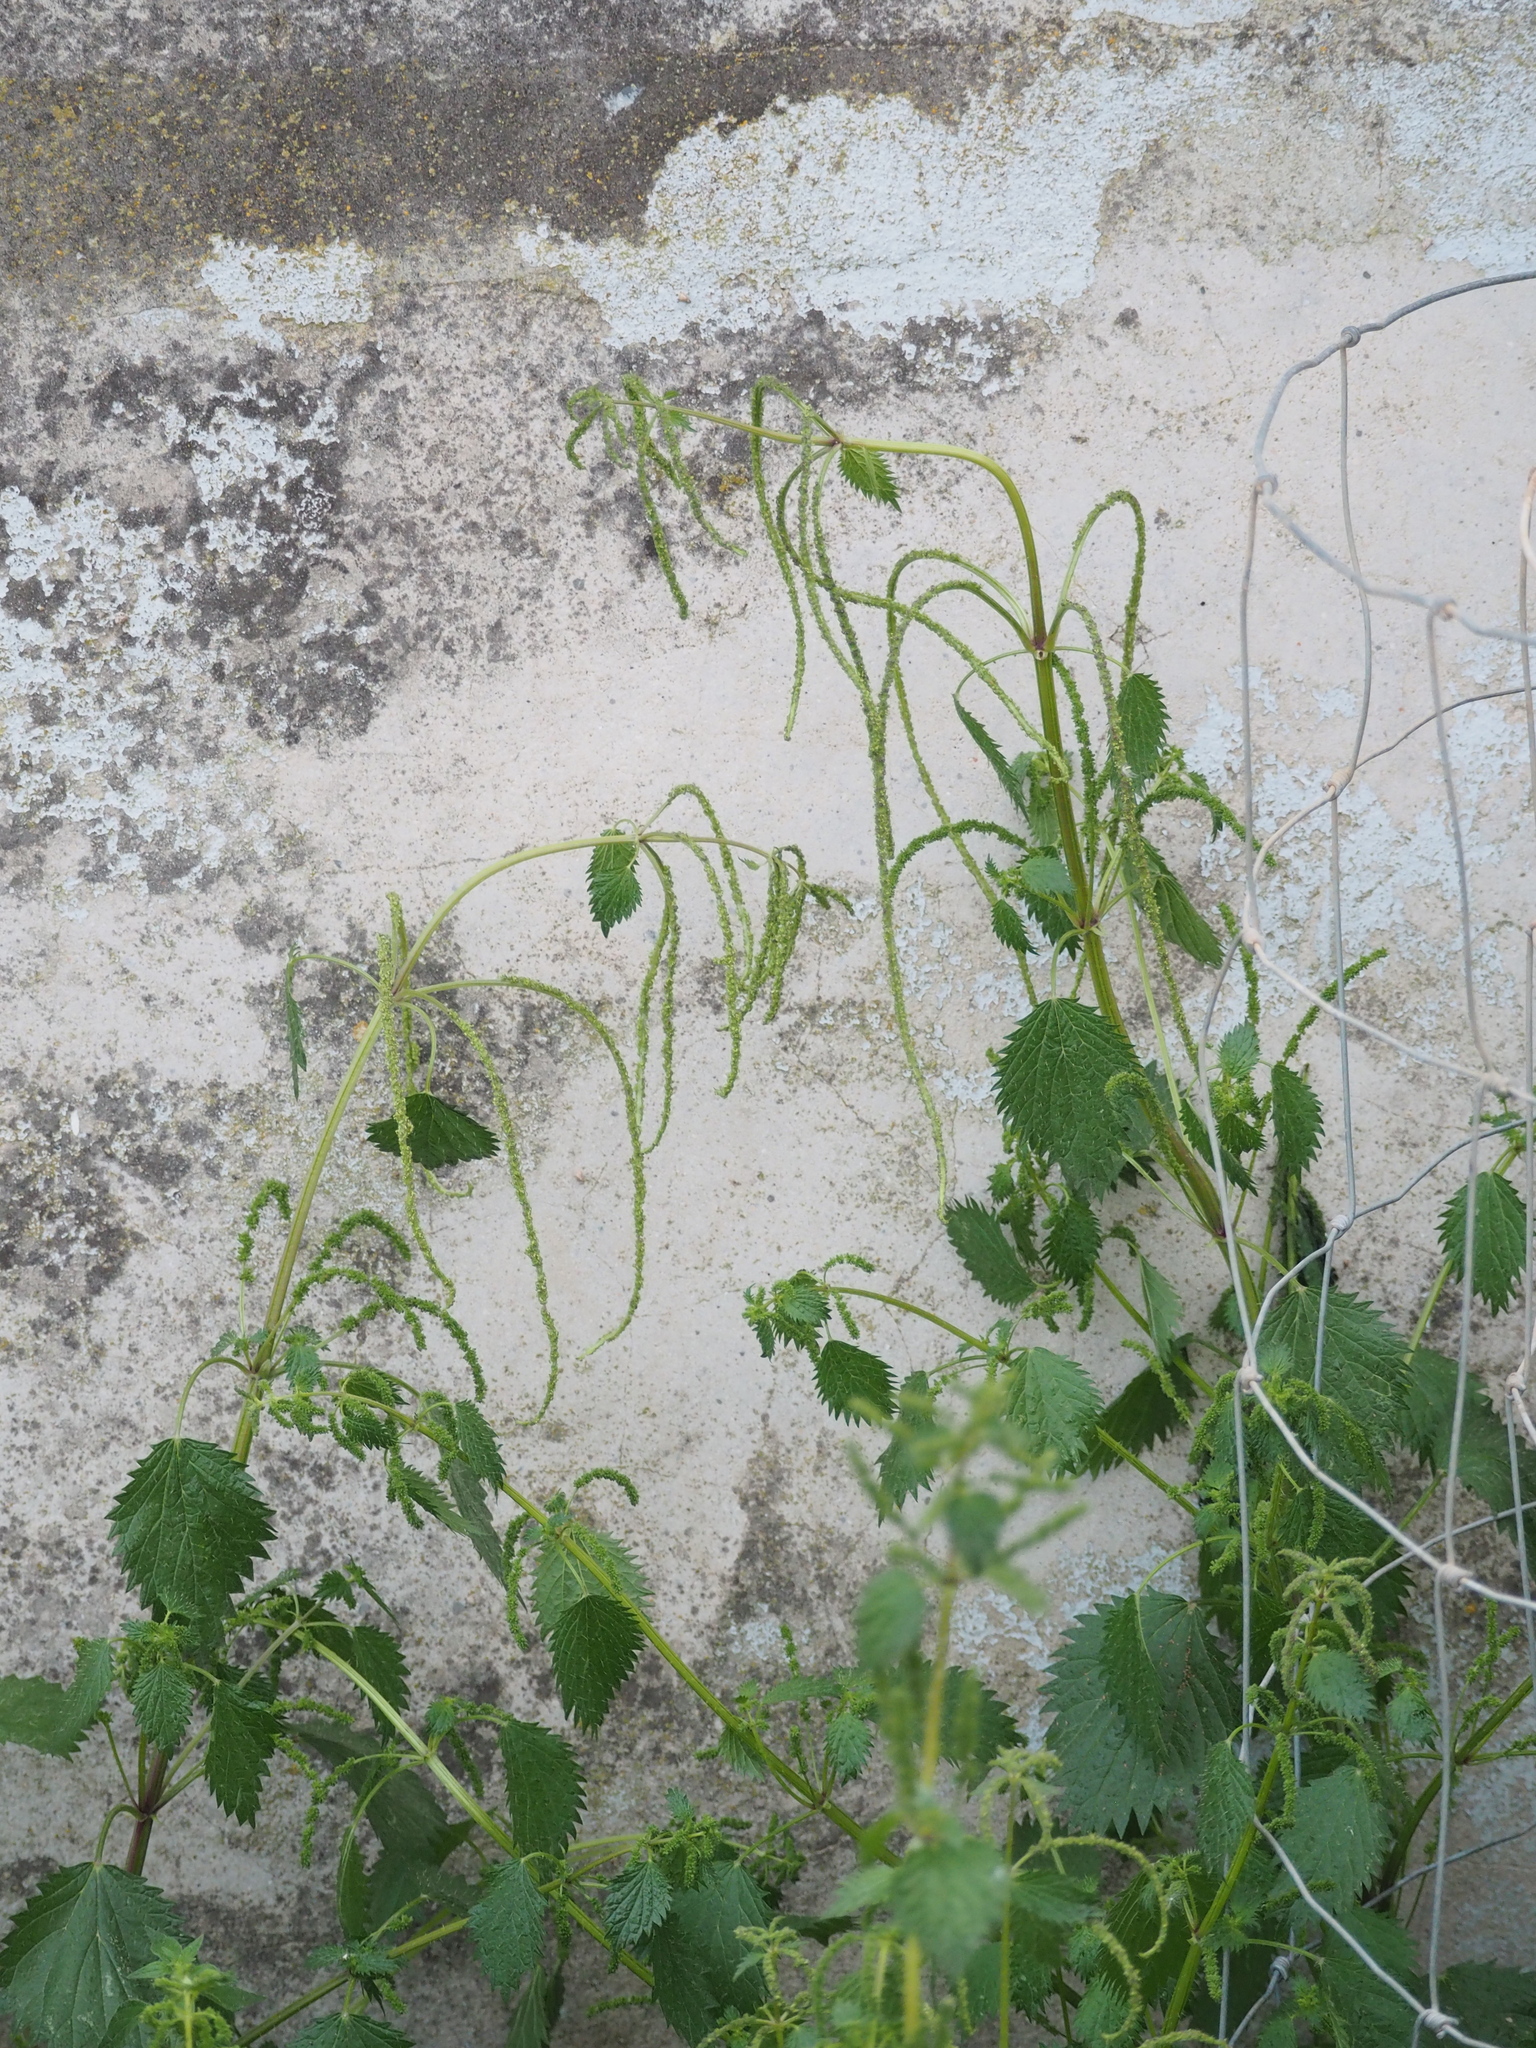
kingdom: Plantae
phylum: Tracheophyta
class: Magnoliopsida
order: Rosales
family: Urticaceae
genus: Urtica
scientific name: Urtica membranacea
